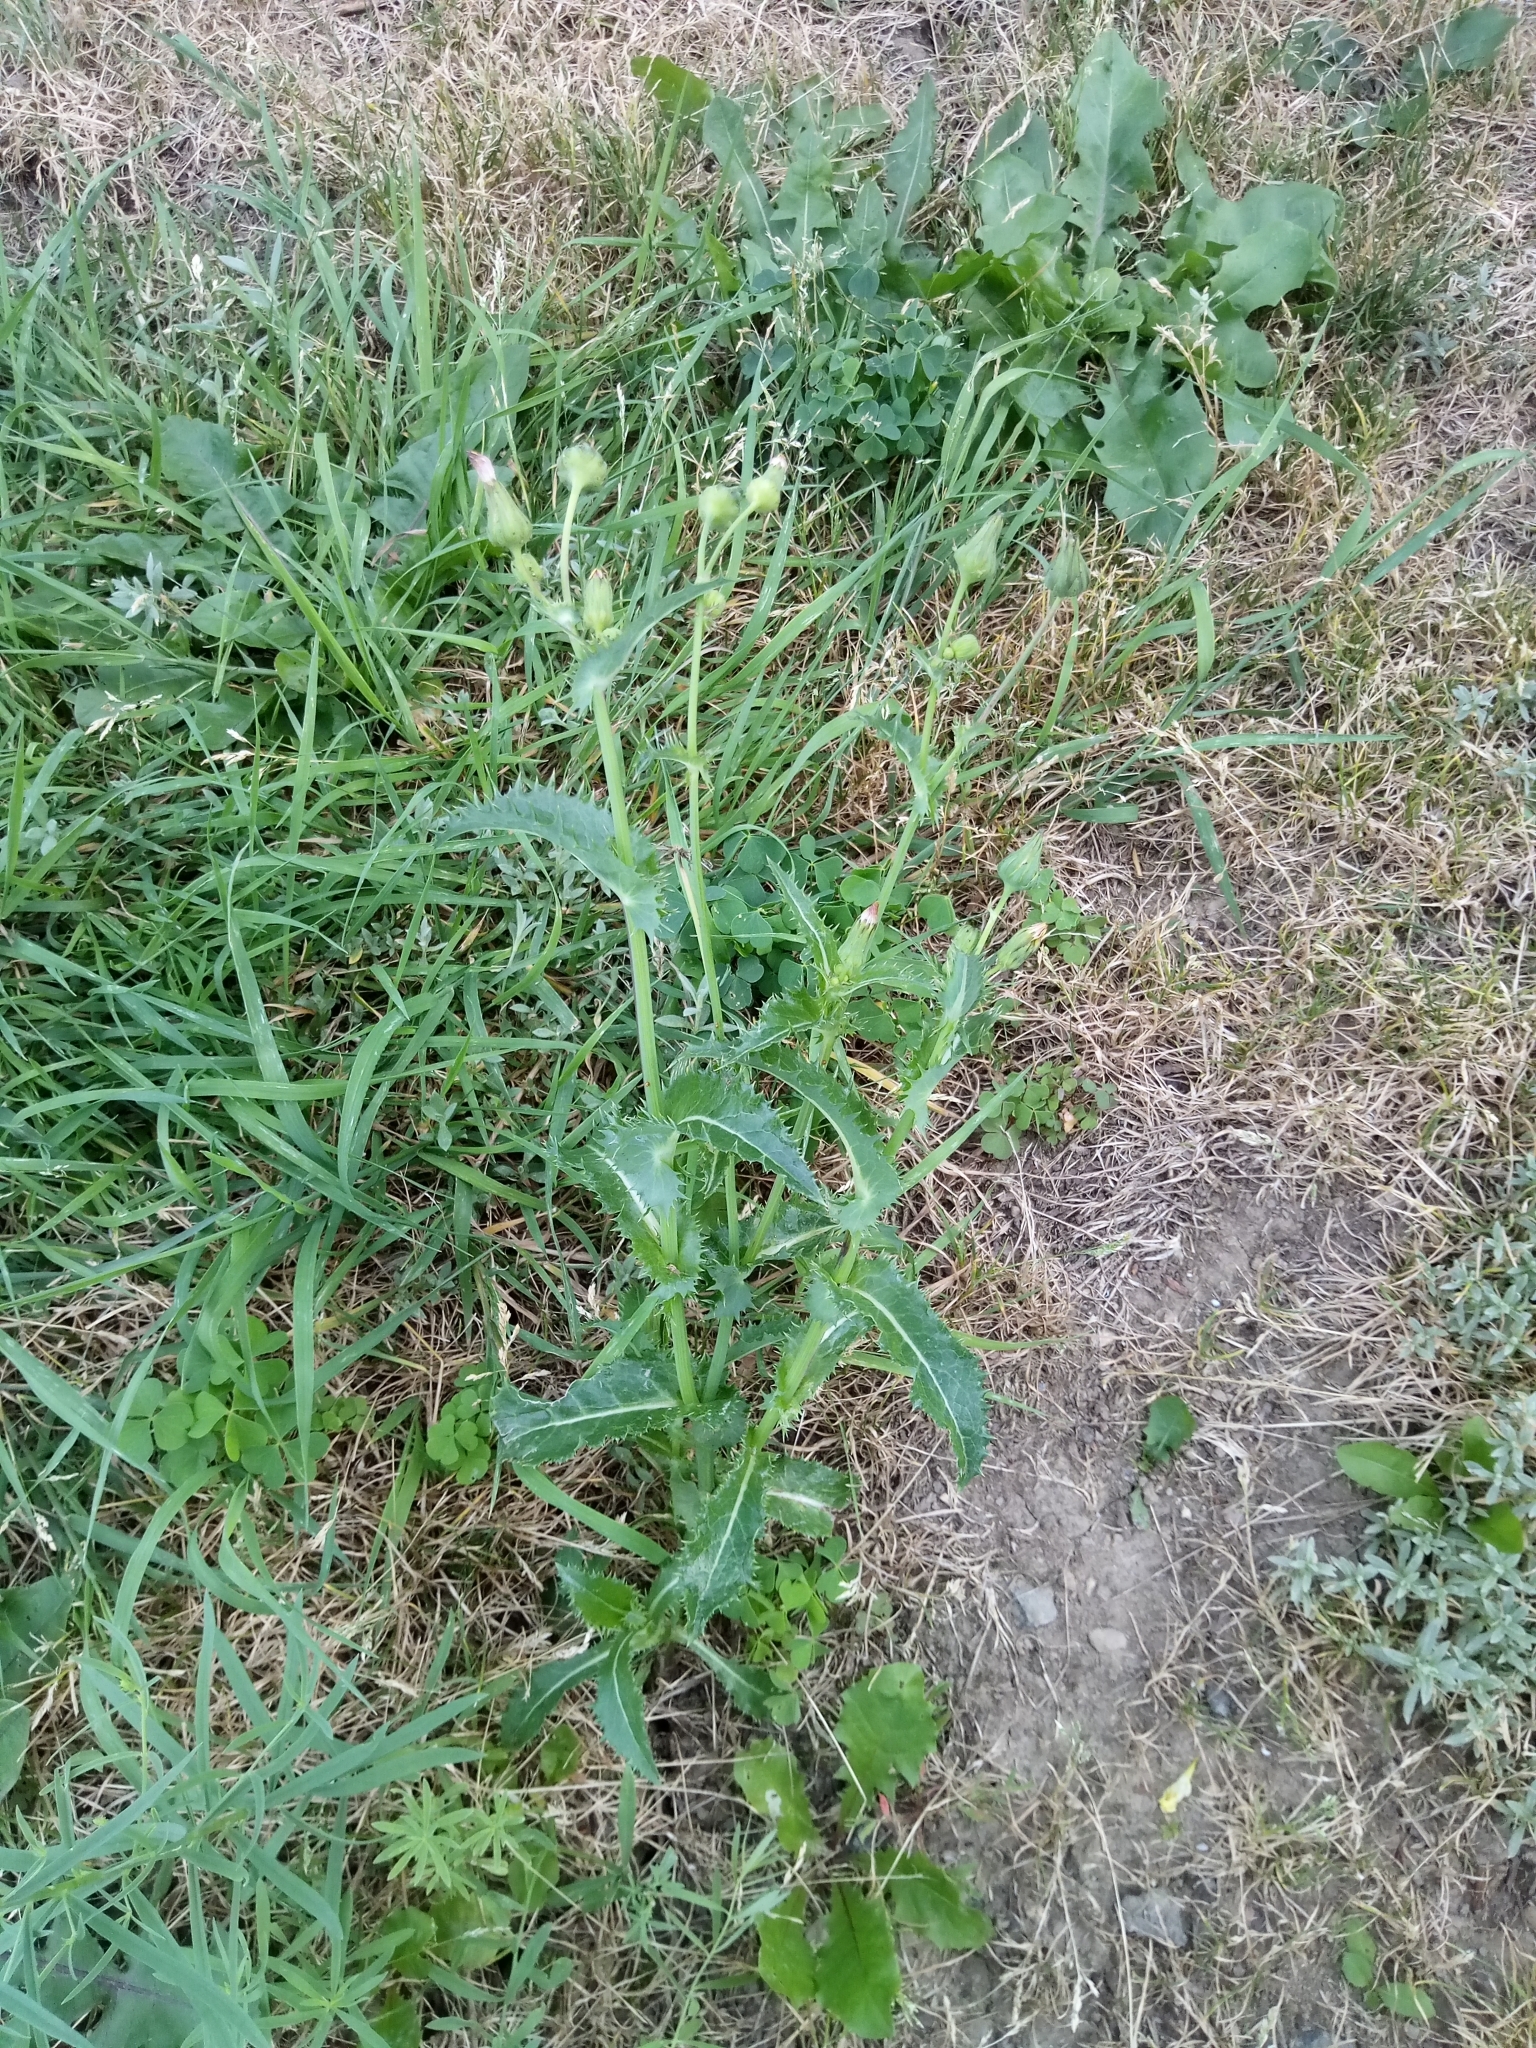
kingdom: Plantae
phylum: Tracheophyta
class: Magnoliopsida
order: Asterales
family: Asteraceae
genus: Sonchus
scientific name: Sonchus asper
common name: Prickly sow-thistle
